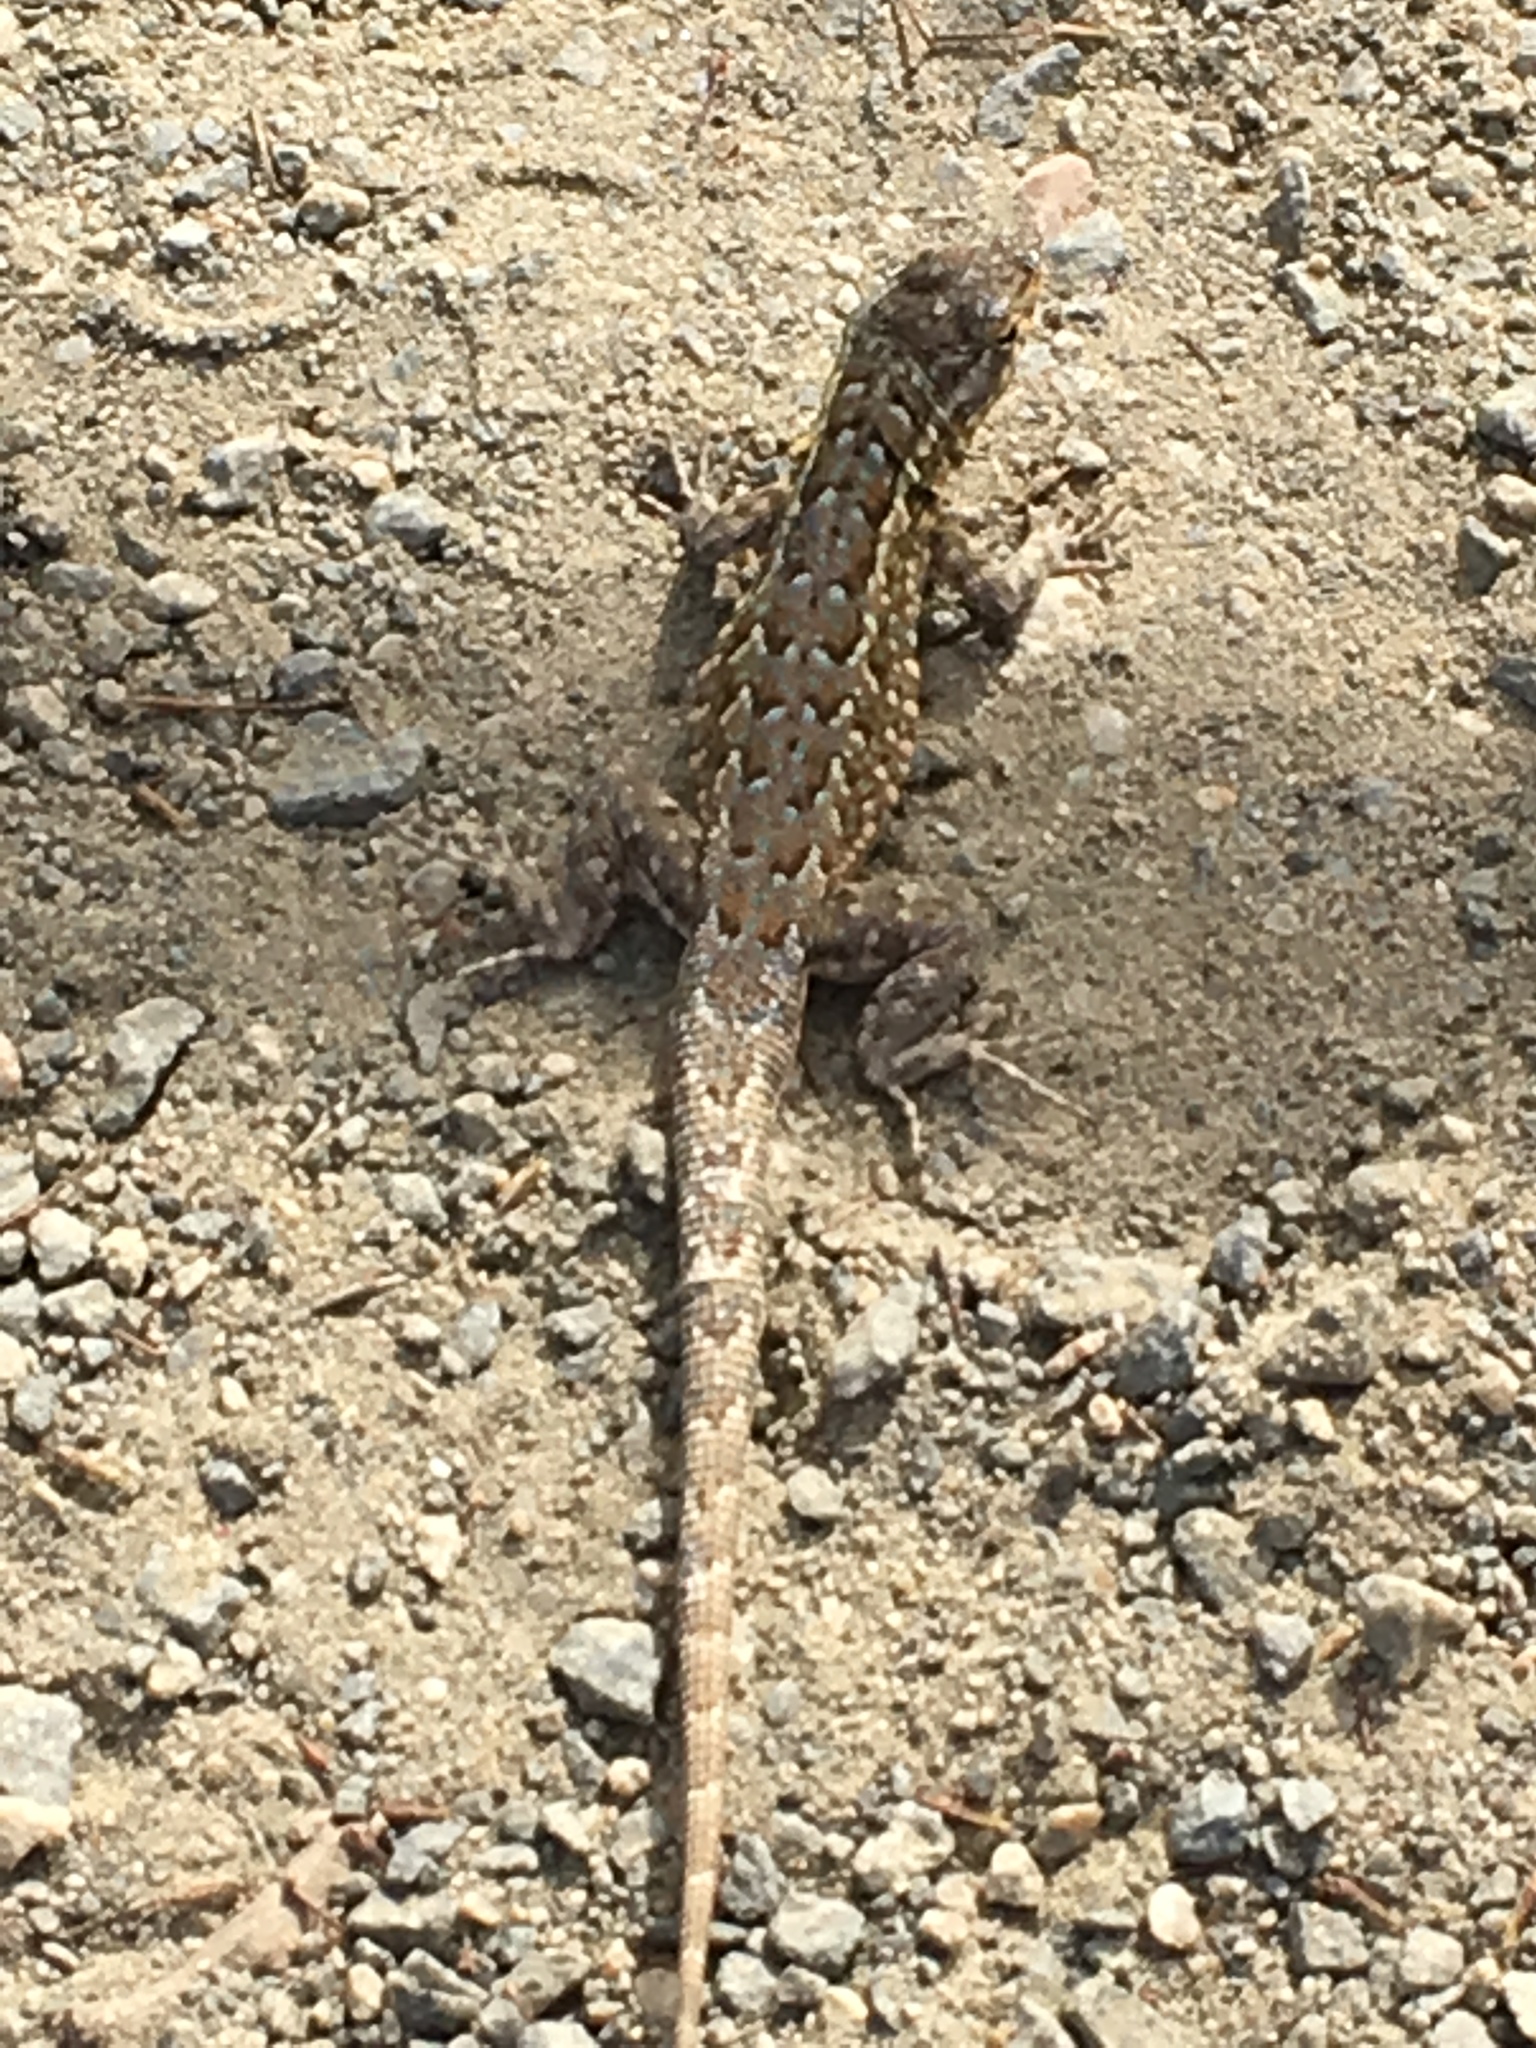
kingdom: Animalia
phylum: Chordata
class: Squamata
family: Phrynosomatidae
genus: Uta
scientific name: Uta stansburiana
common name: Side-blotched lizard
